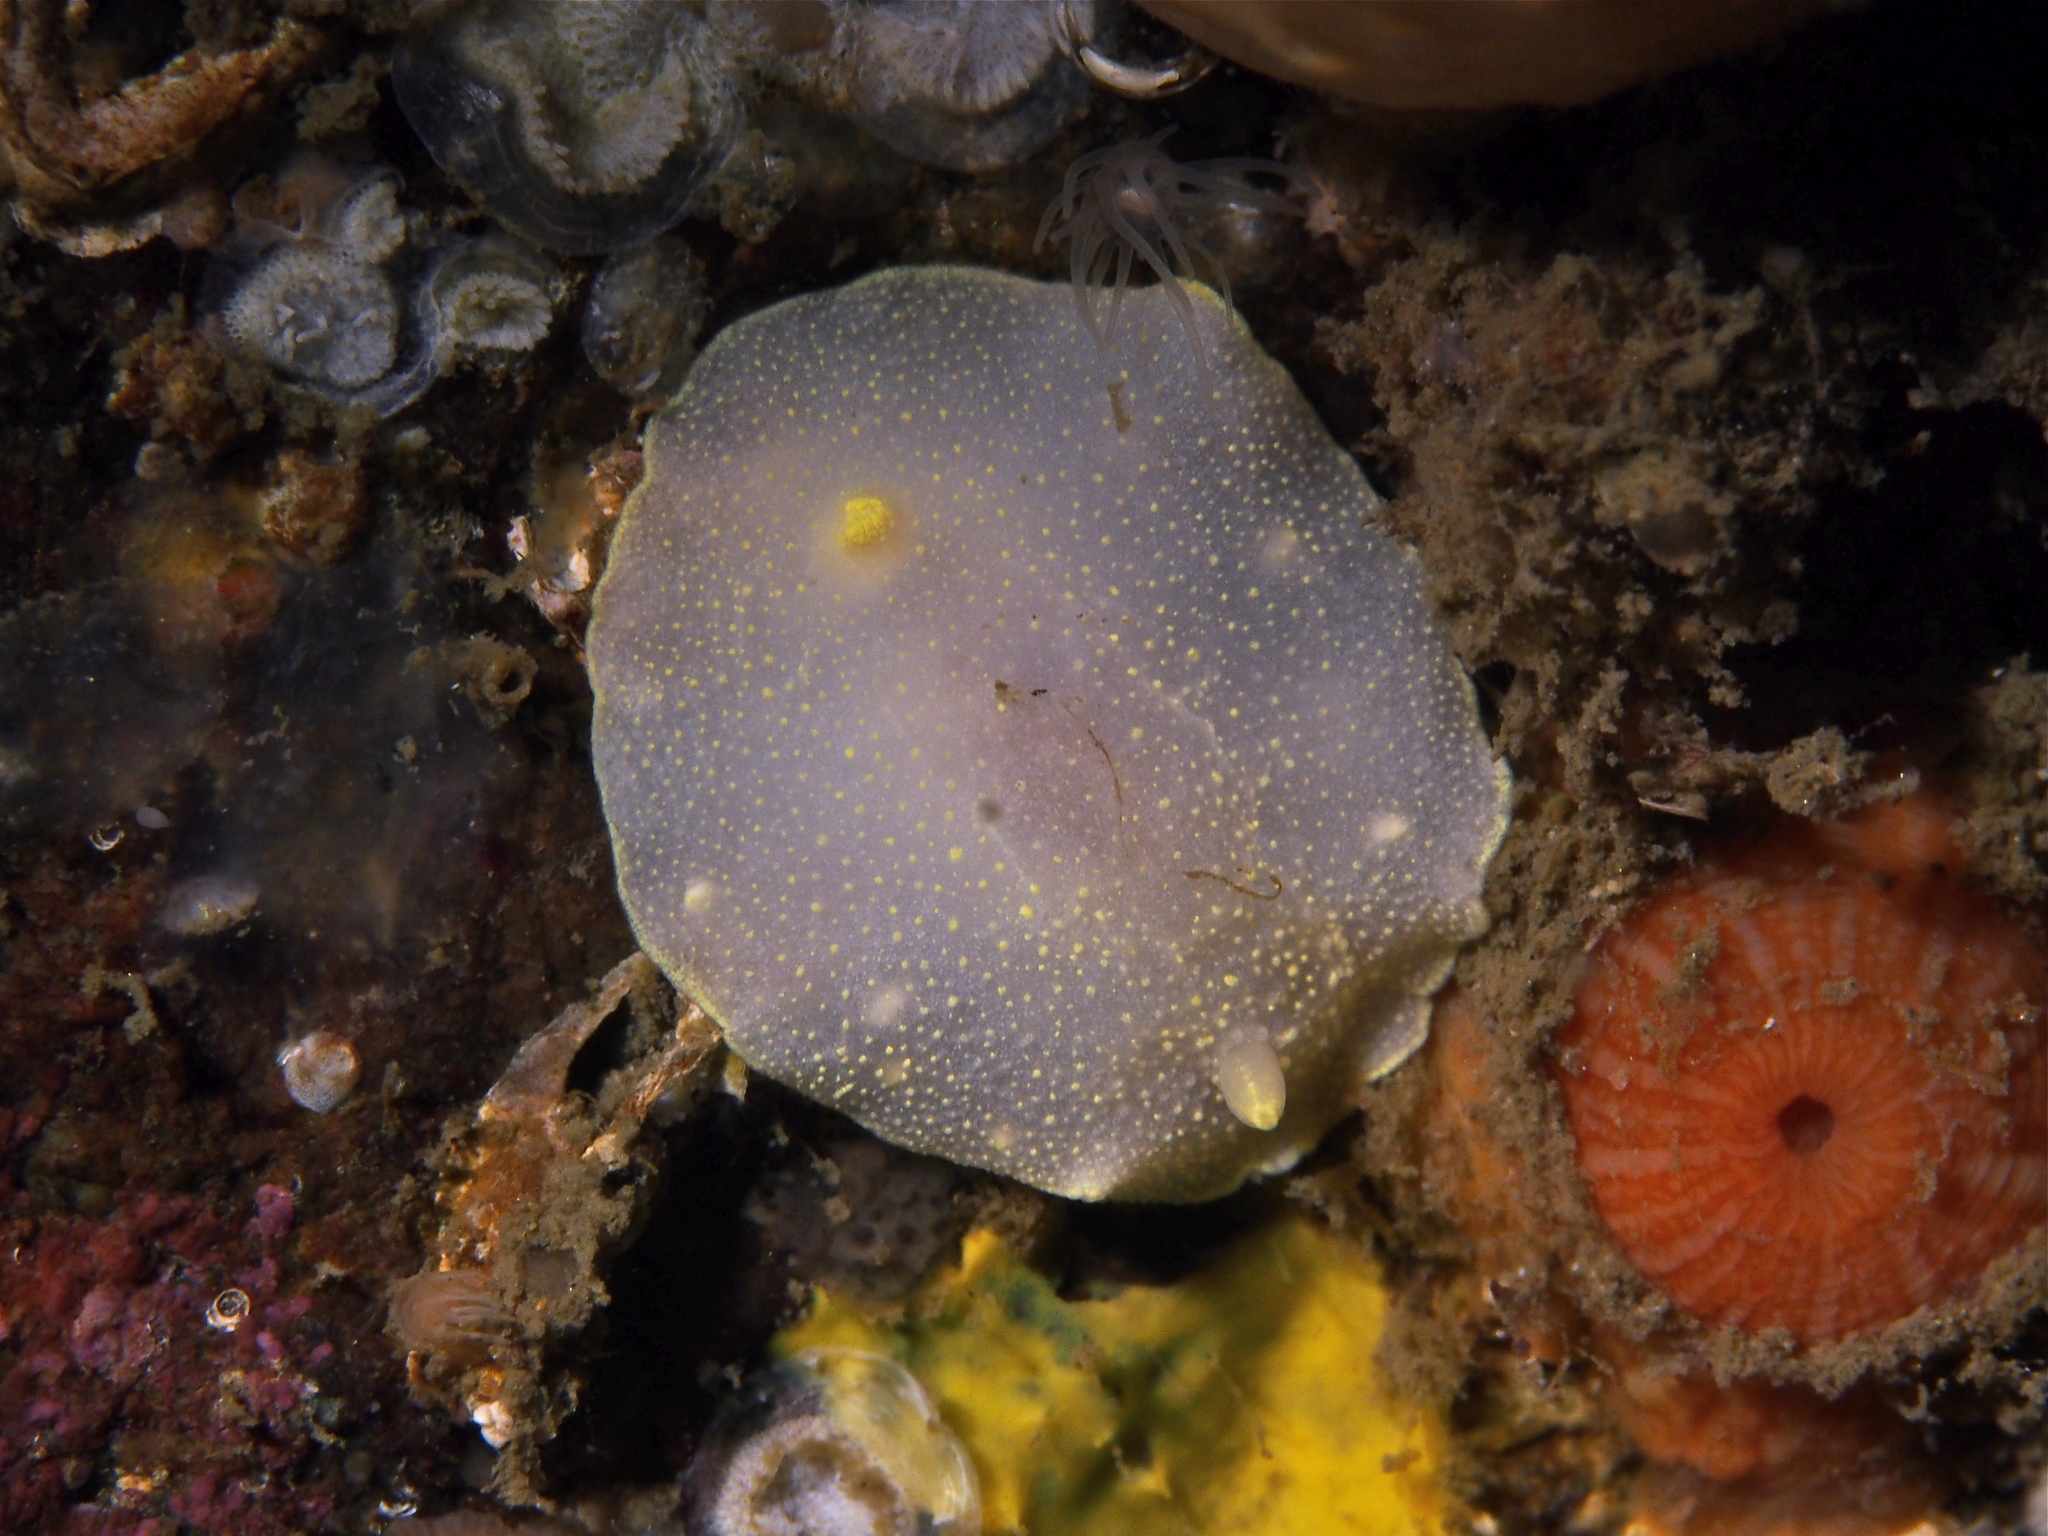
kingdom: Animalia
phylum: Mollusca
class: Gastropoda
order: Nudibranchia
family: Cadlinidae
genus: Cadlina
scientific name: Cadlina laevis
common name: White atlantic cadlina
